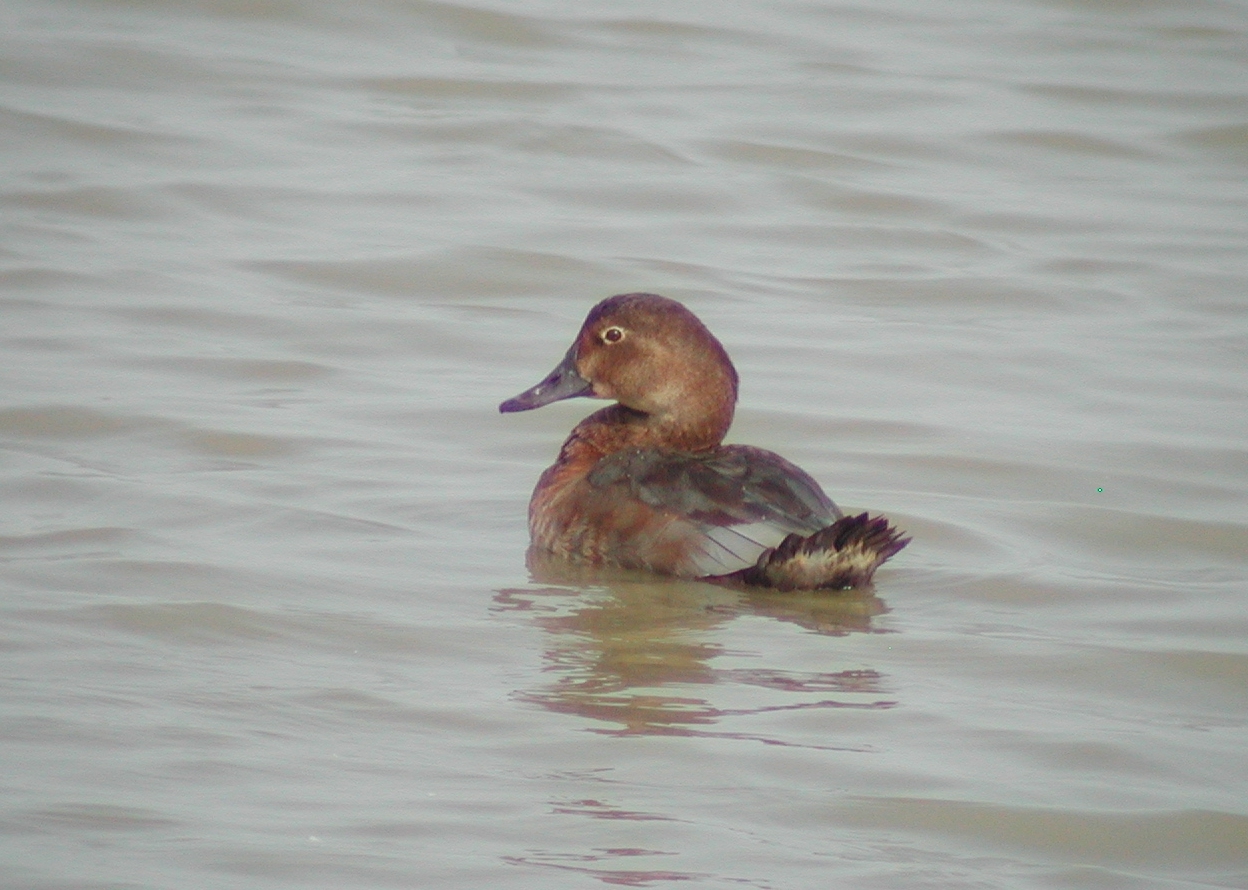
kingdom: Animalia
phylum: Chordata
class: Aves
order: Anseriformes
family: Anatidae
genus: Aythya
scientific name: Aythya ferina
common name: Common pochard
